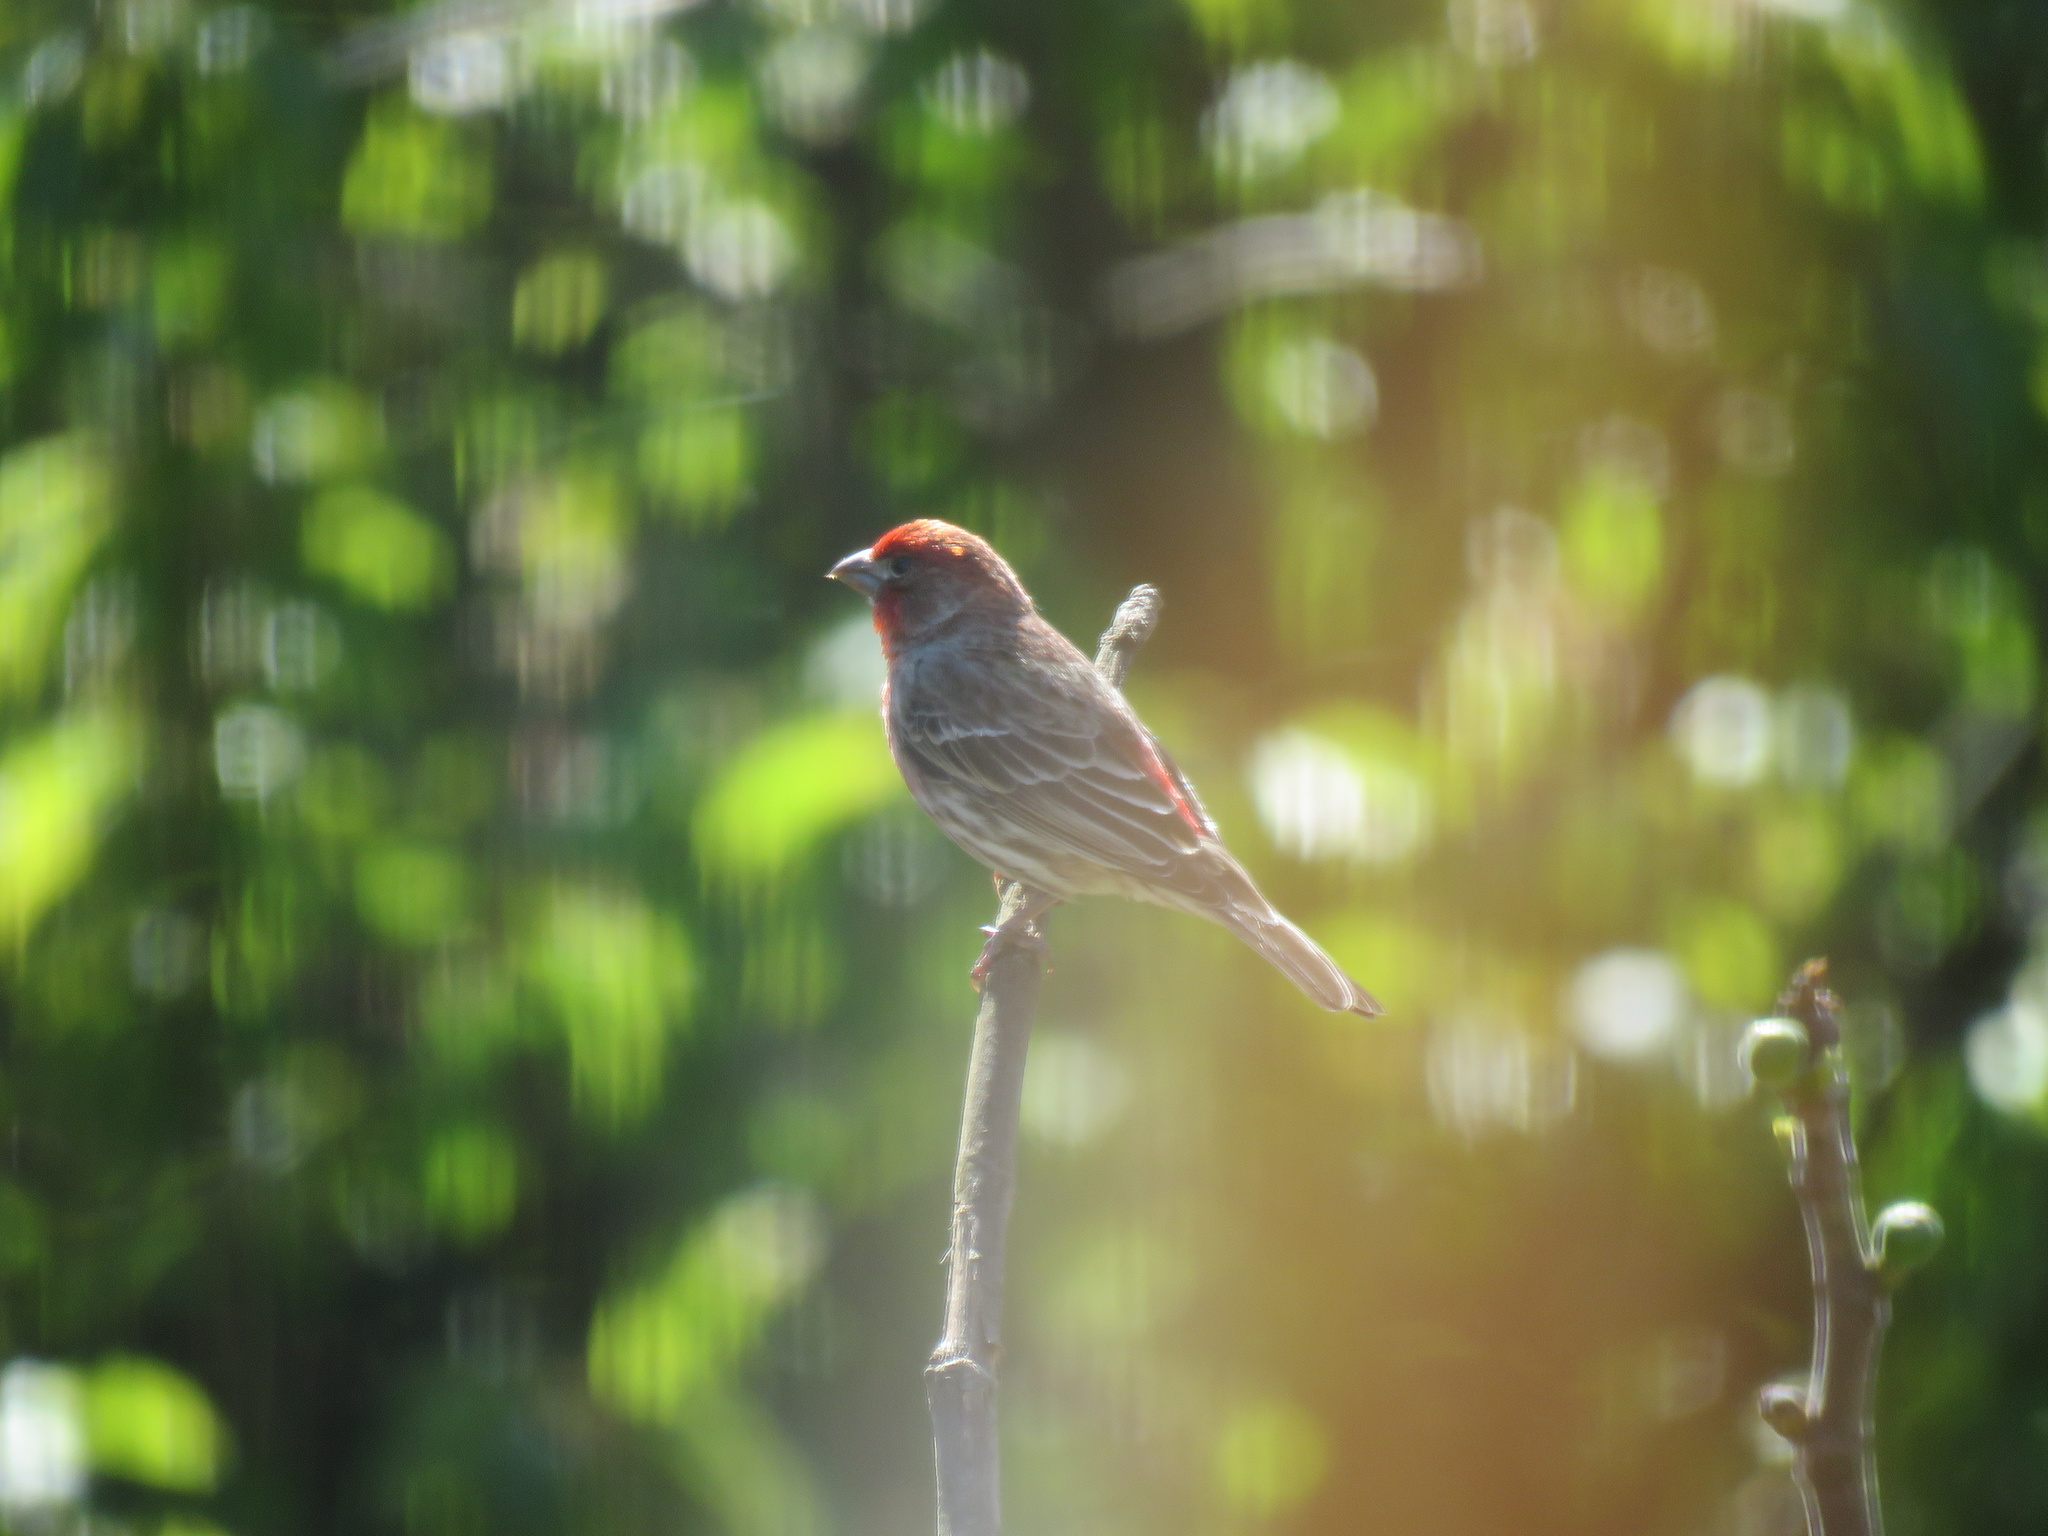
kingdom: Animalia
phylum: Chordata
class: Aves
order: Passeriformes
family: Fringillidae
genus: Haemorhous
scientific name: Haemorhous mexicanus
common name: House finch
